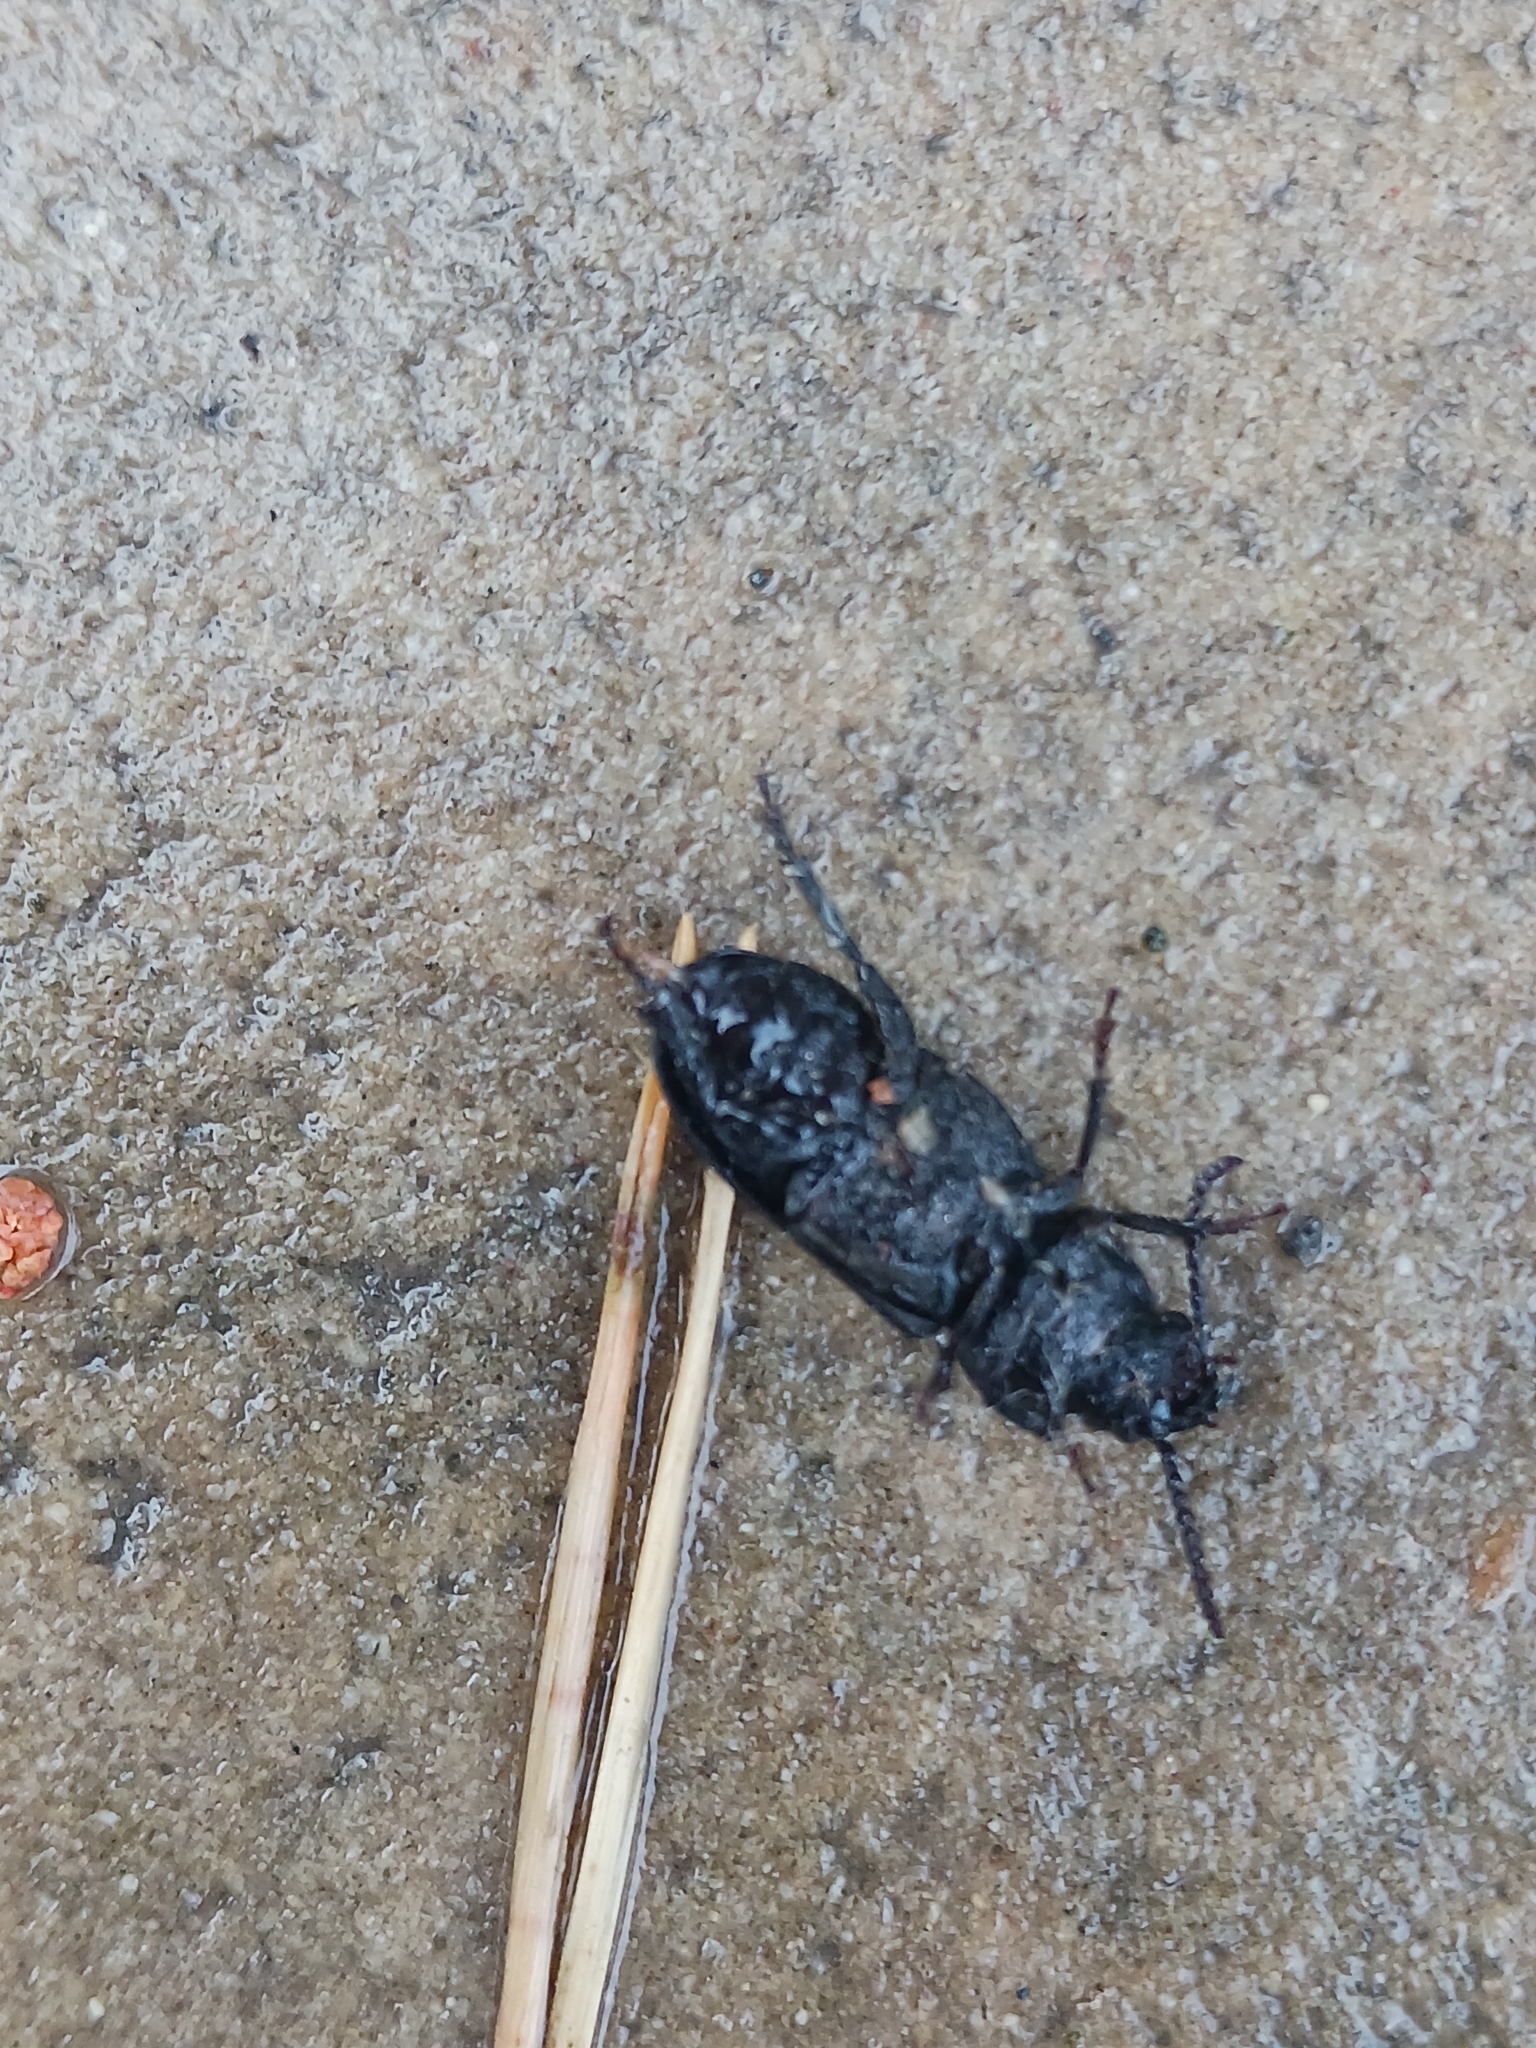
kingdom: Animalia
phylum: Arthropoda
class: Insecta
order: Coleoptera
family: Cerambycidae
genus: Spondylis
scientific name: Spondylis buprestoides
